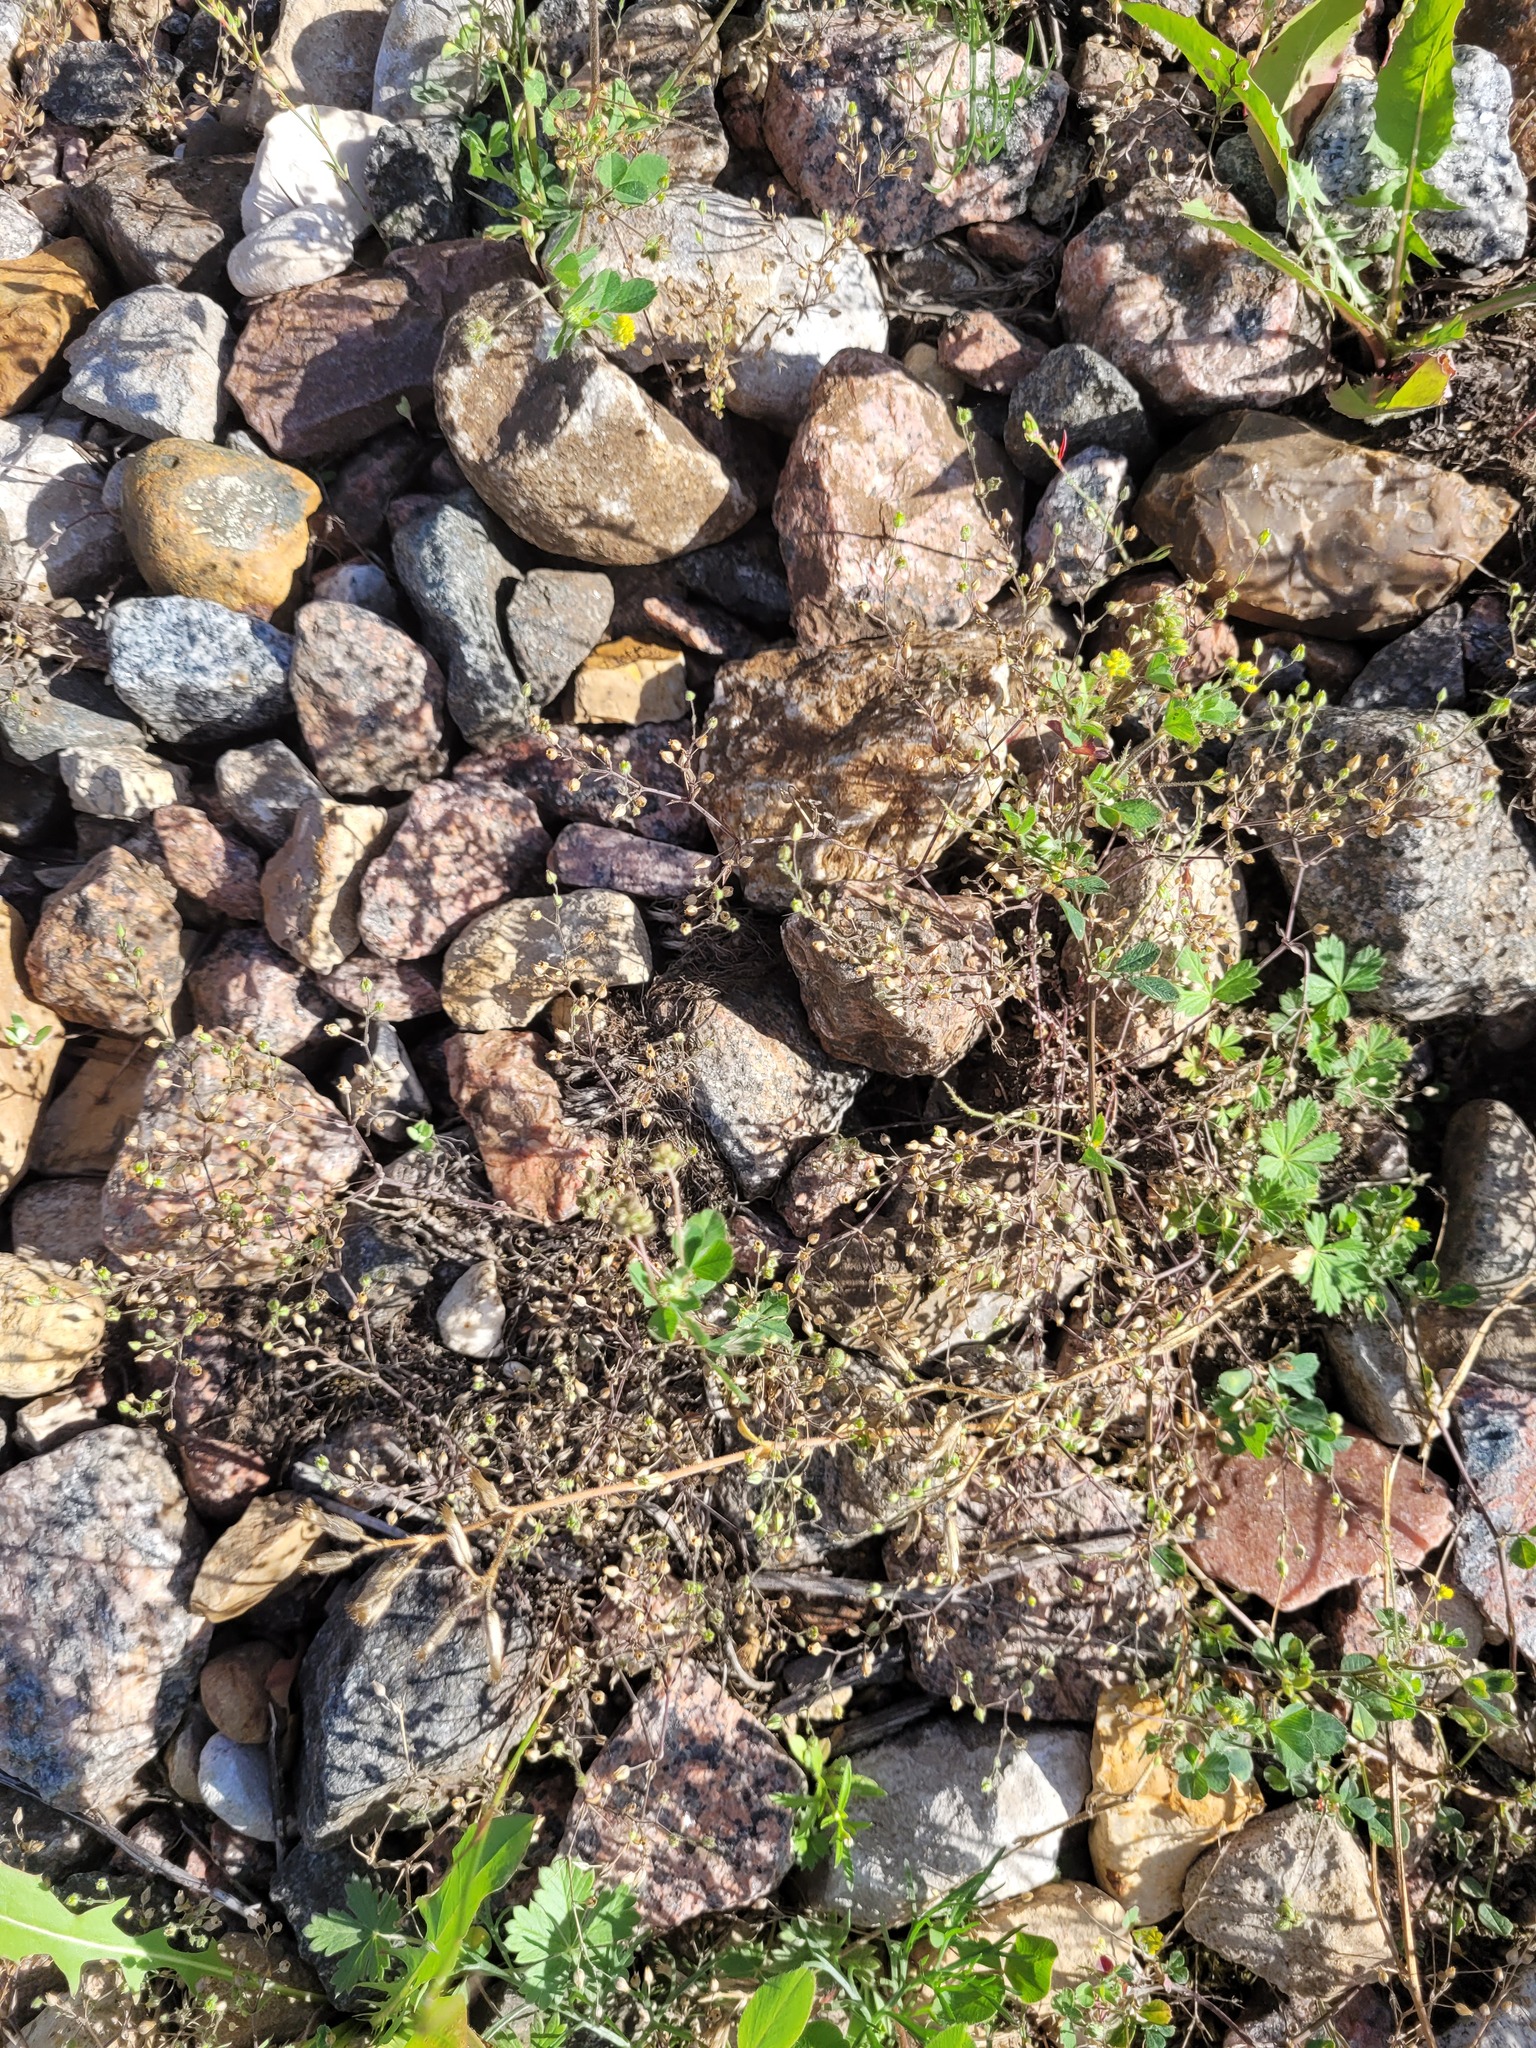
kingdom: Plantae
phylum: Tracheophyta
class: Magnoliopsida
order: Caryophyllales
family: Caryophyllaceae
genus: Arenaria
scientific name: Arenaria serpyllifolia
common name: Thyme-leaved sandwort
